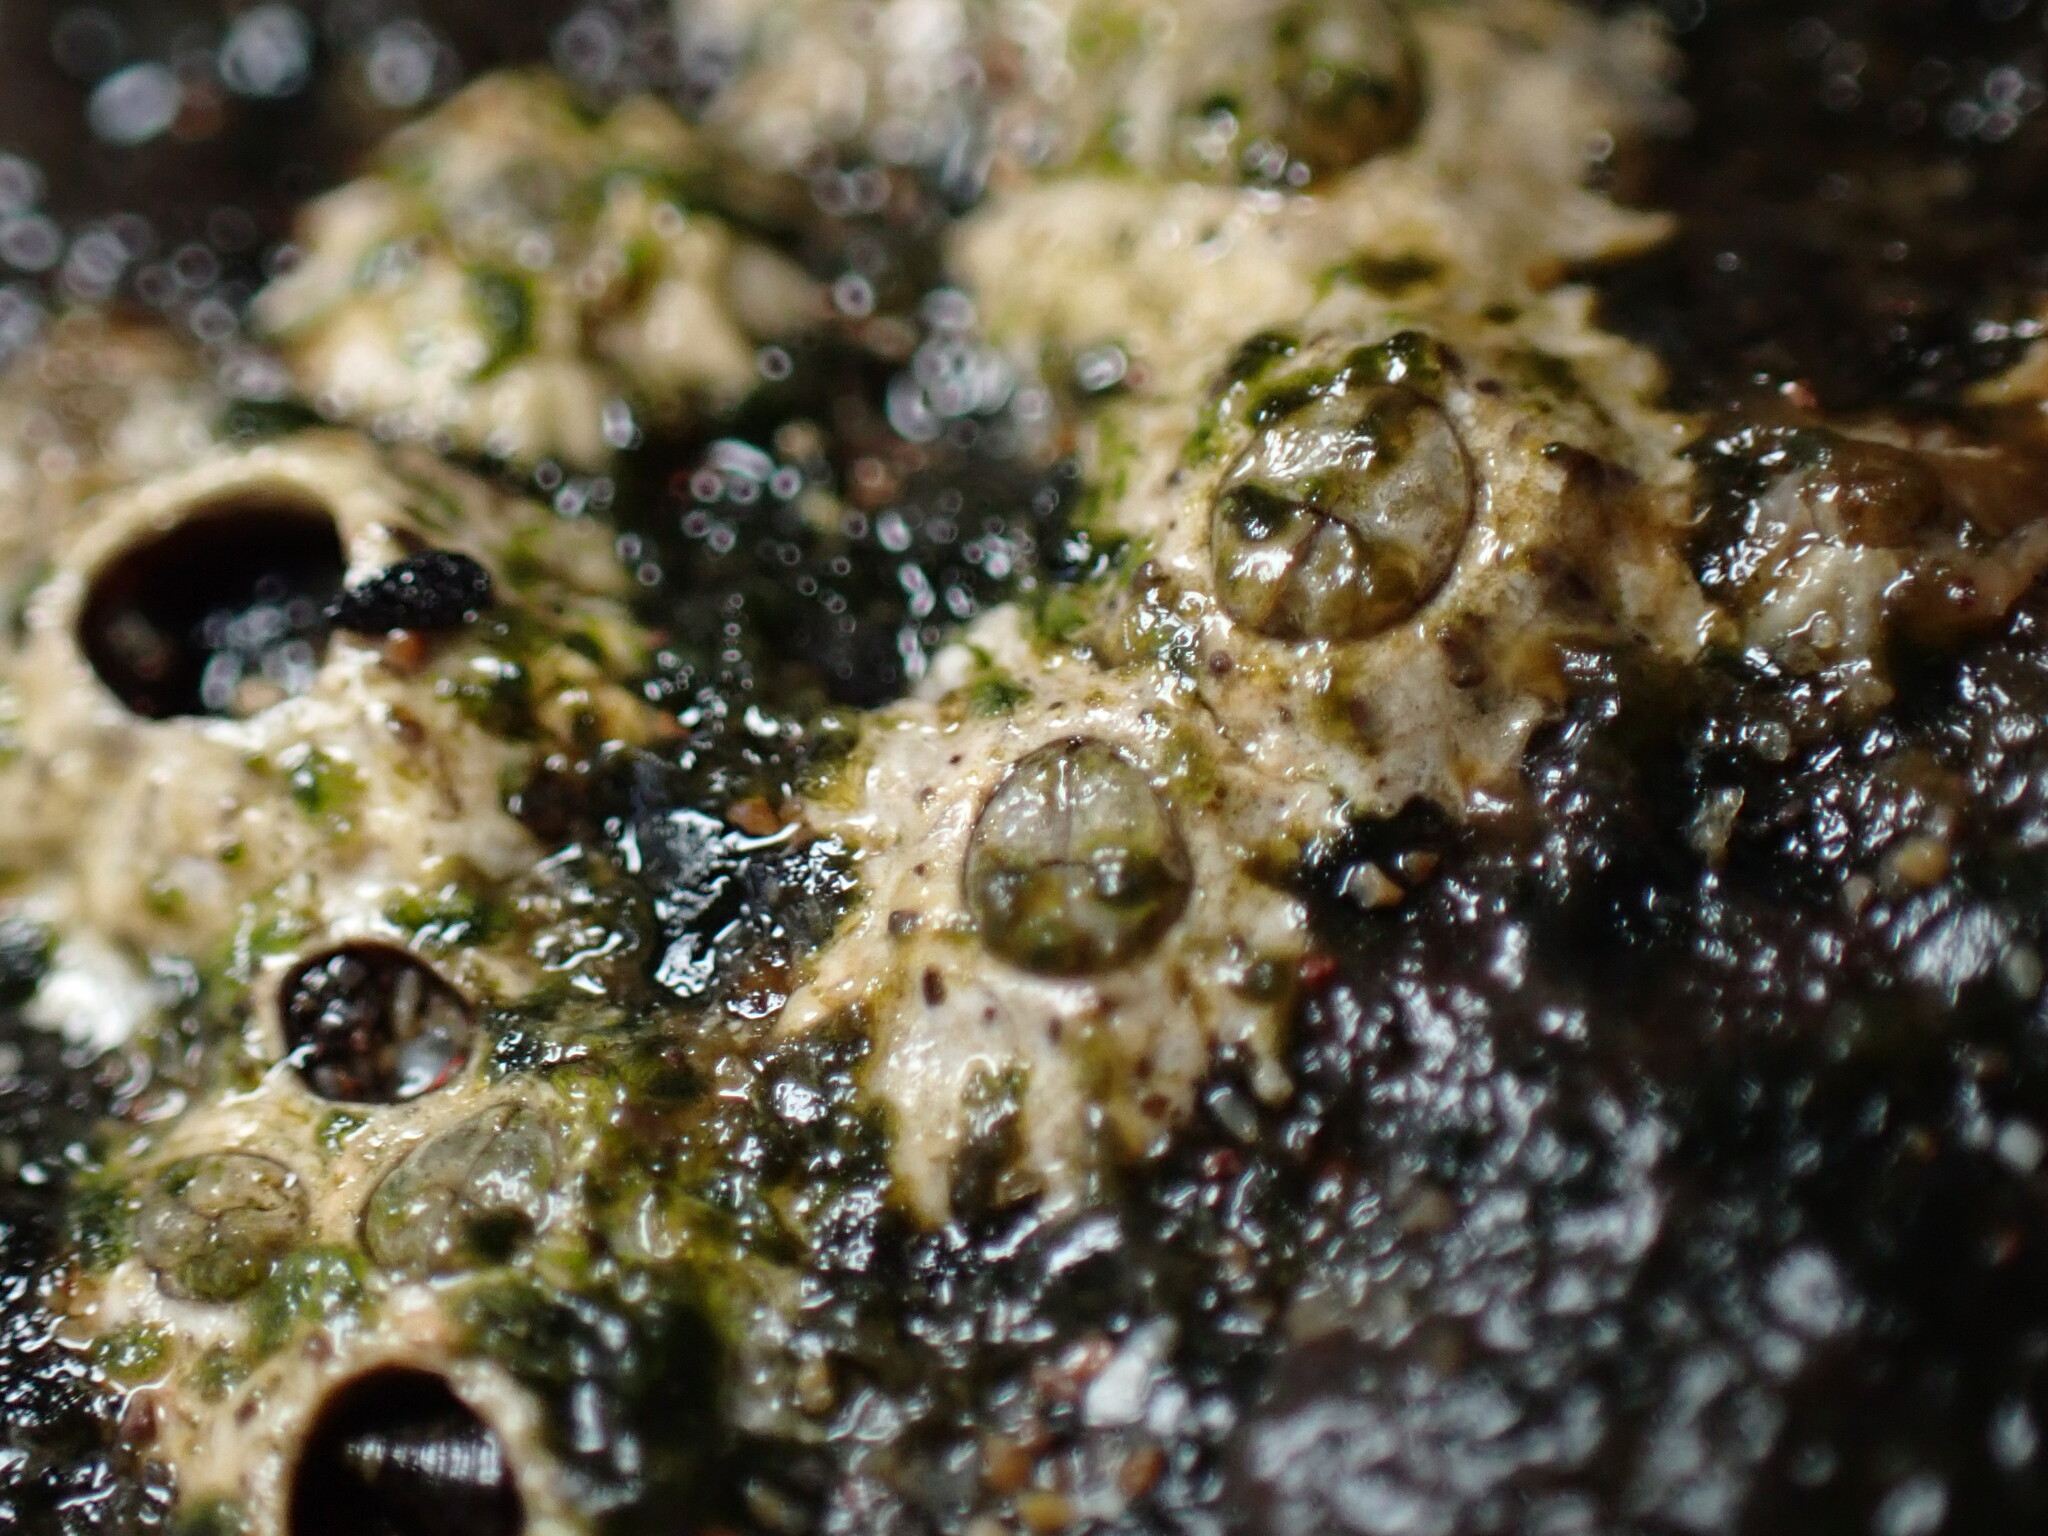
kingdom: Animalia
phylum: Arthropoda
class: Maxillopoda
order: Sessilia
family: Chthamalidae
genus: Chthamalus
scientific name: Chthamalus stellatus
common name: Poli's stellate barnacle
